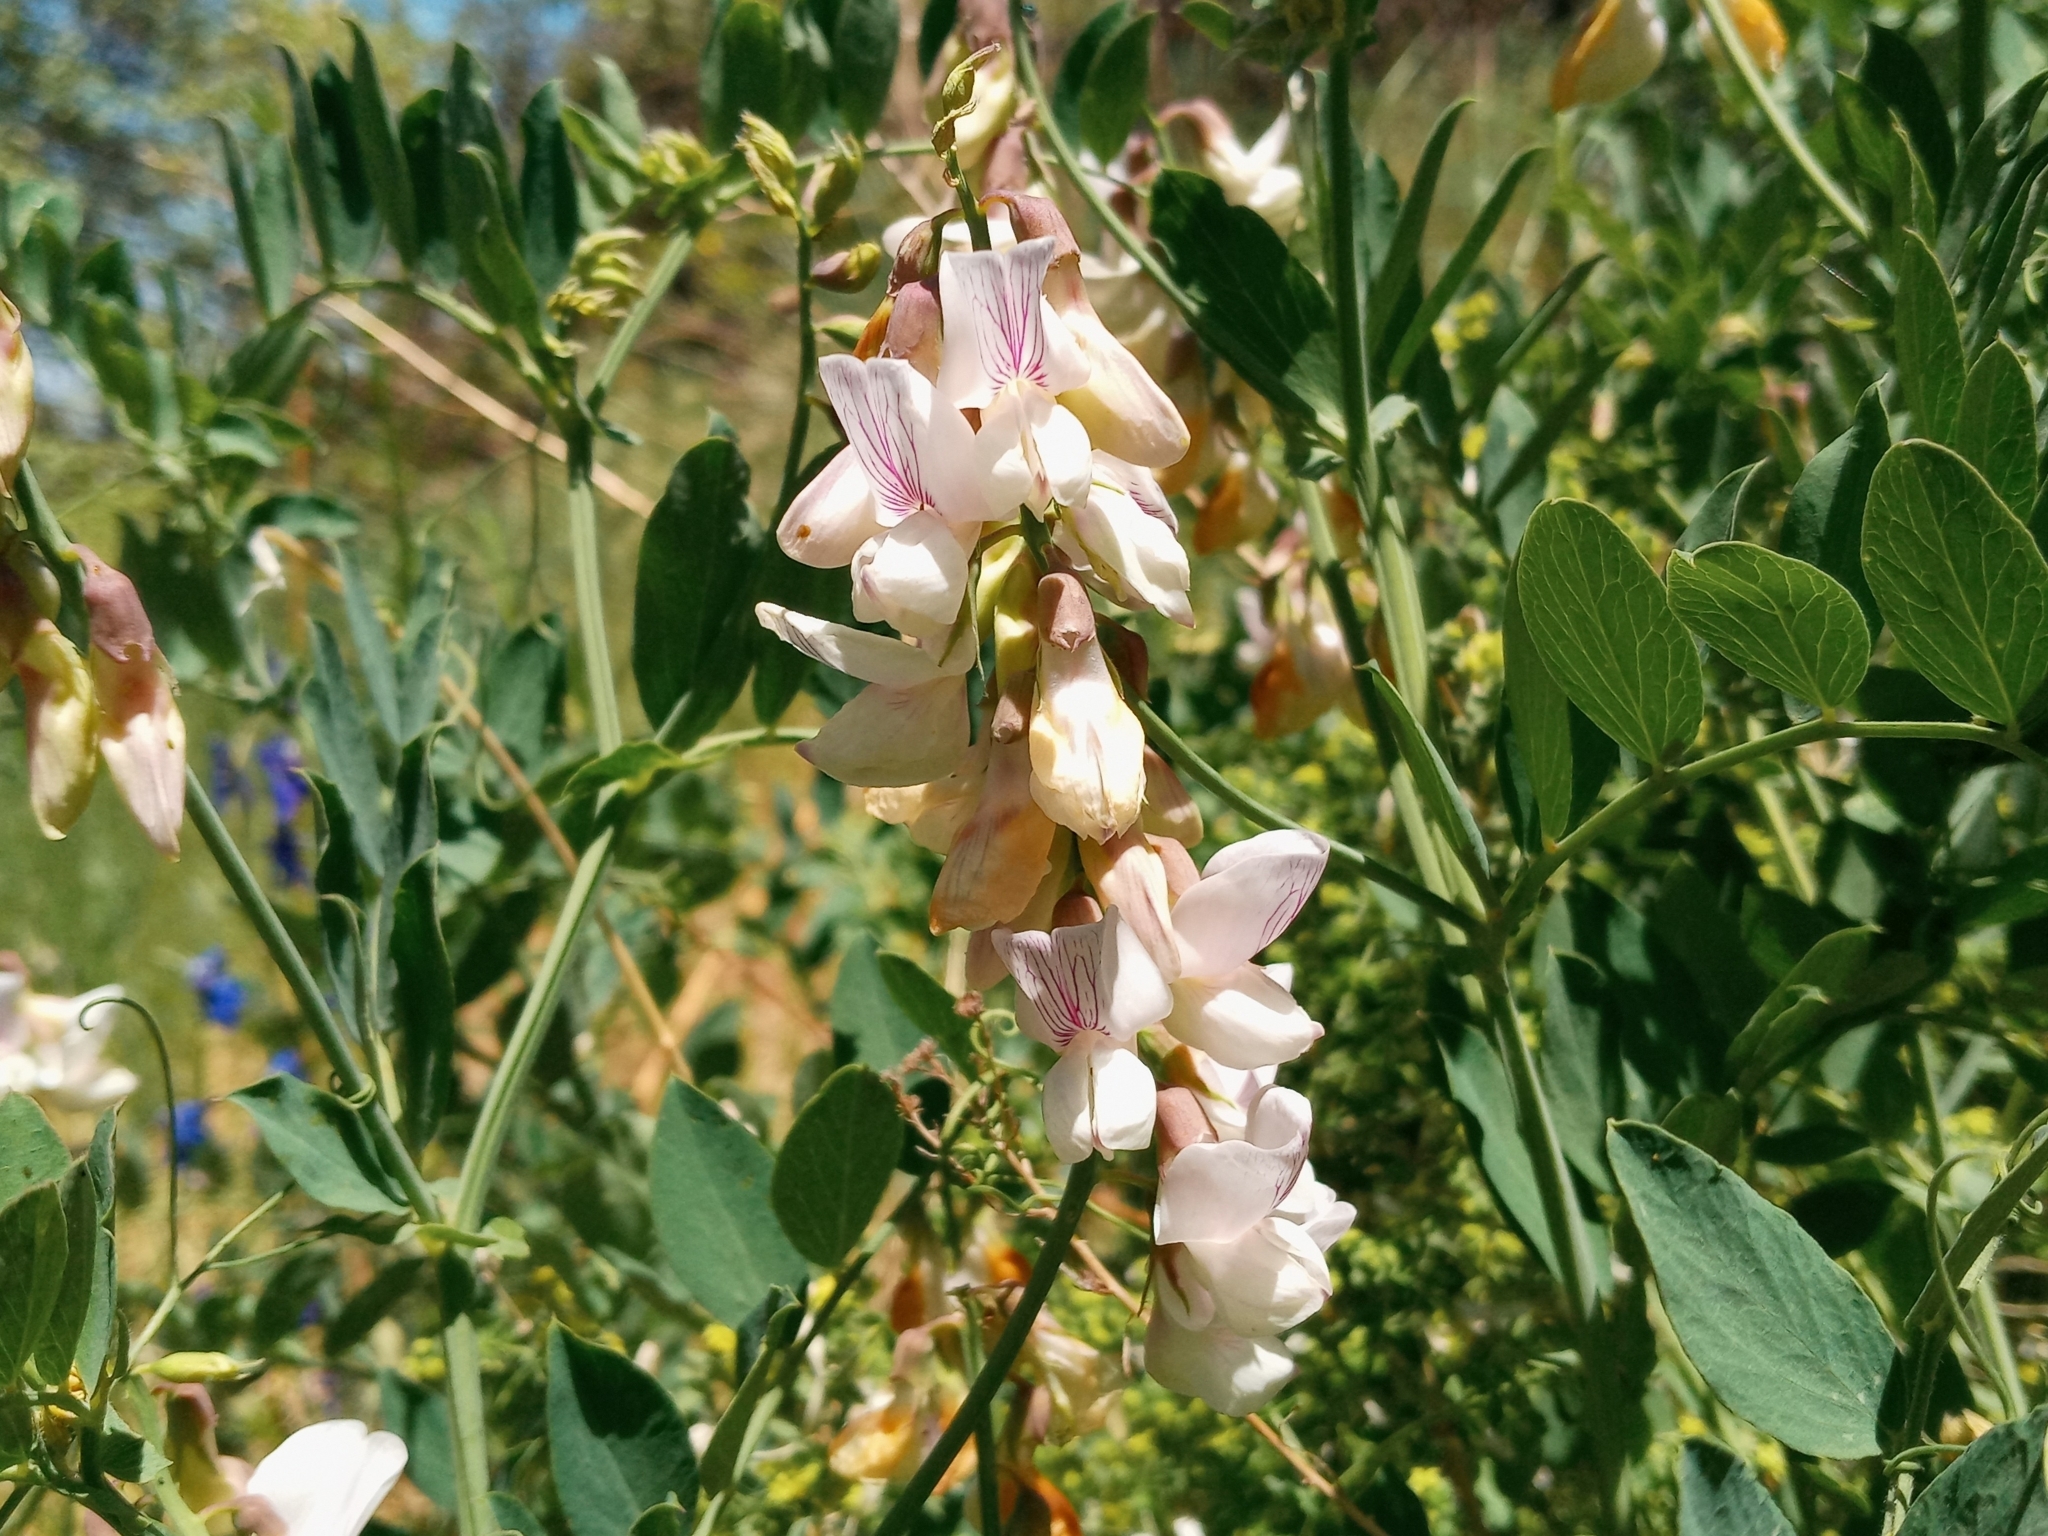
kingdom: Plantae
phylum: Tracheophyta
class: Magnoliopsida
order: Fabales
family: Fabaceae
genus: Lathyrus
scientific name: Lathyrus vestitus
